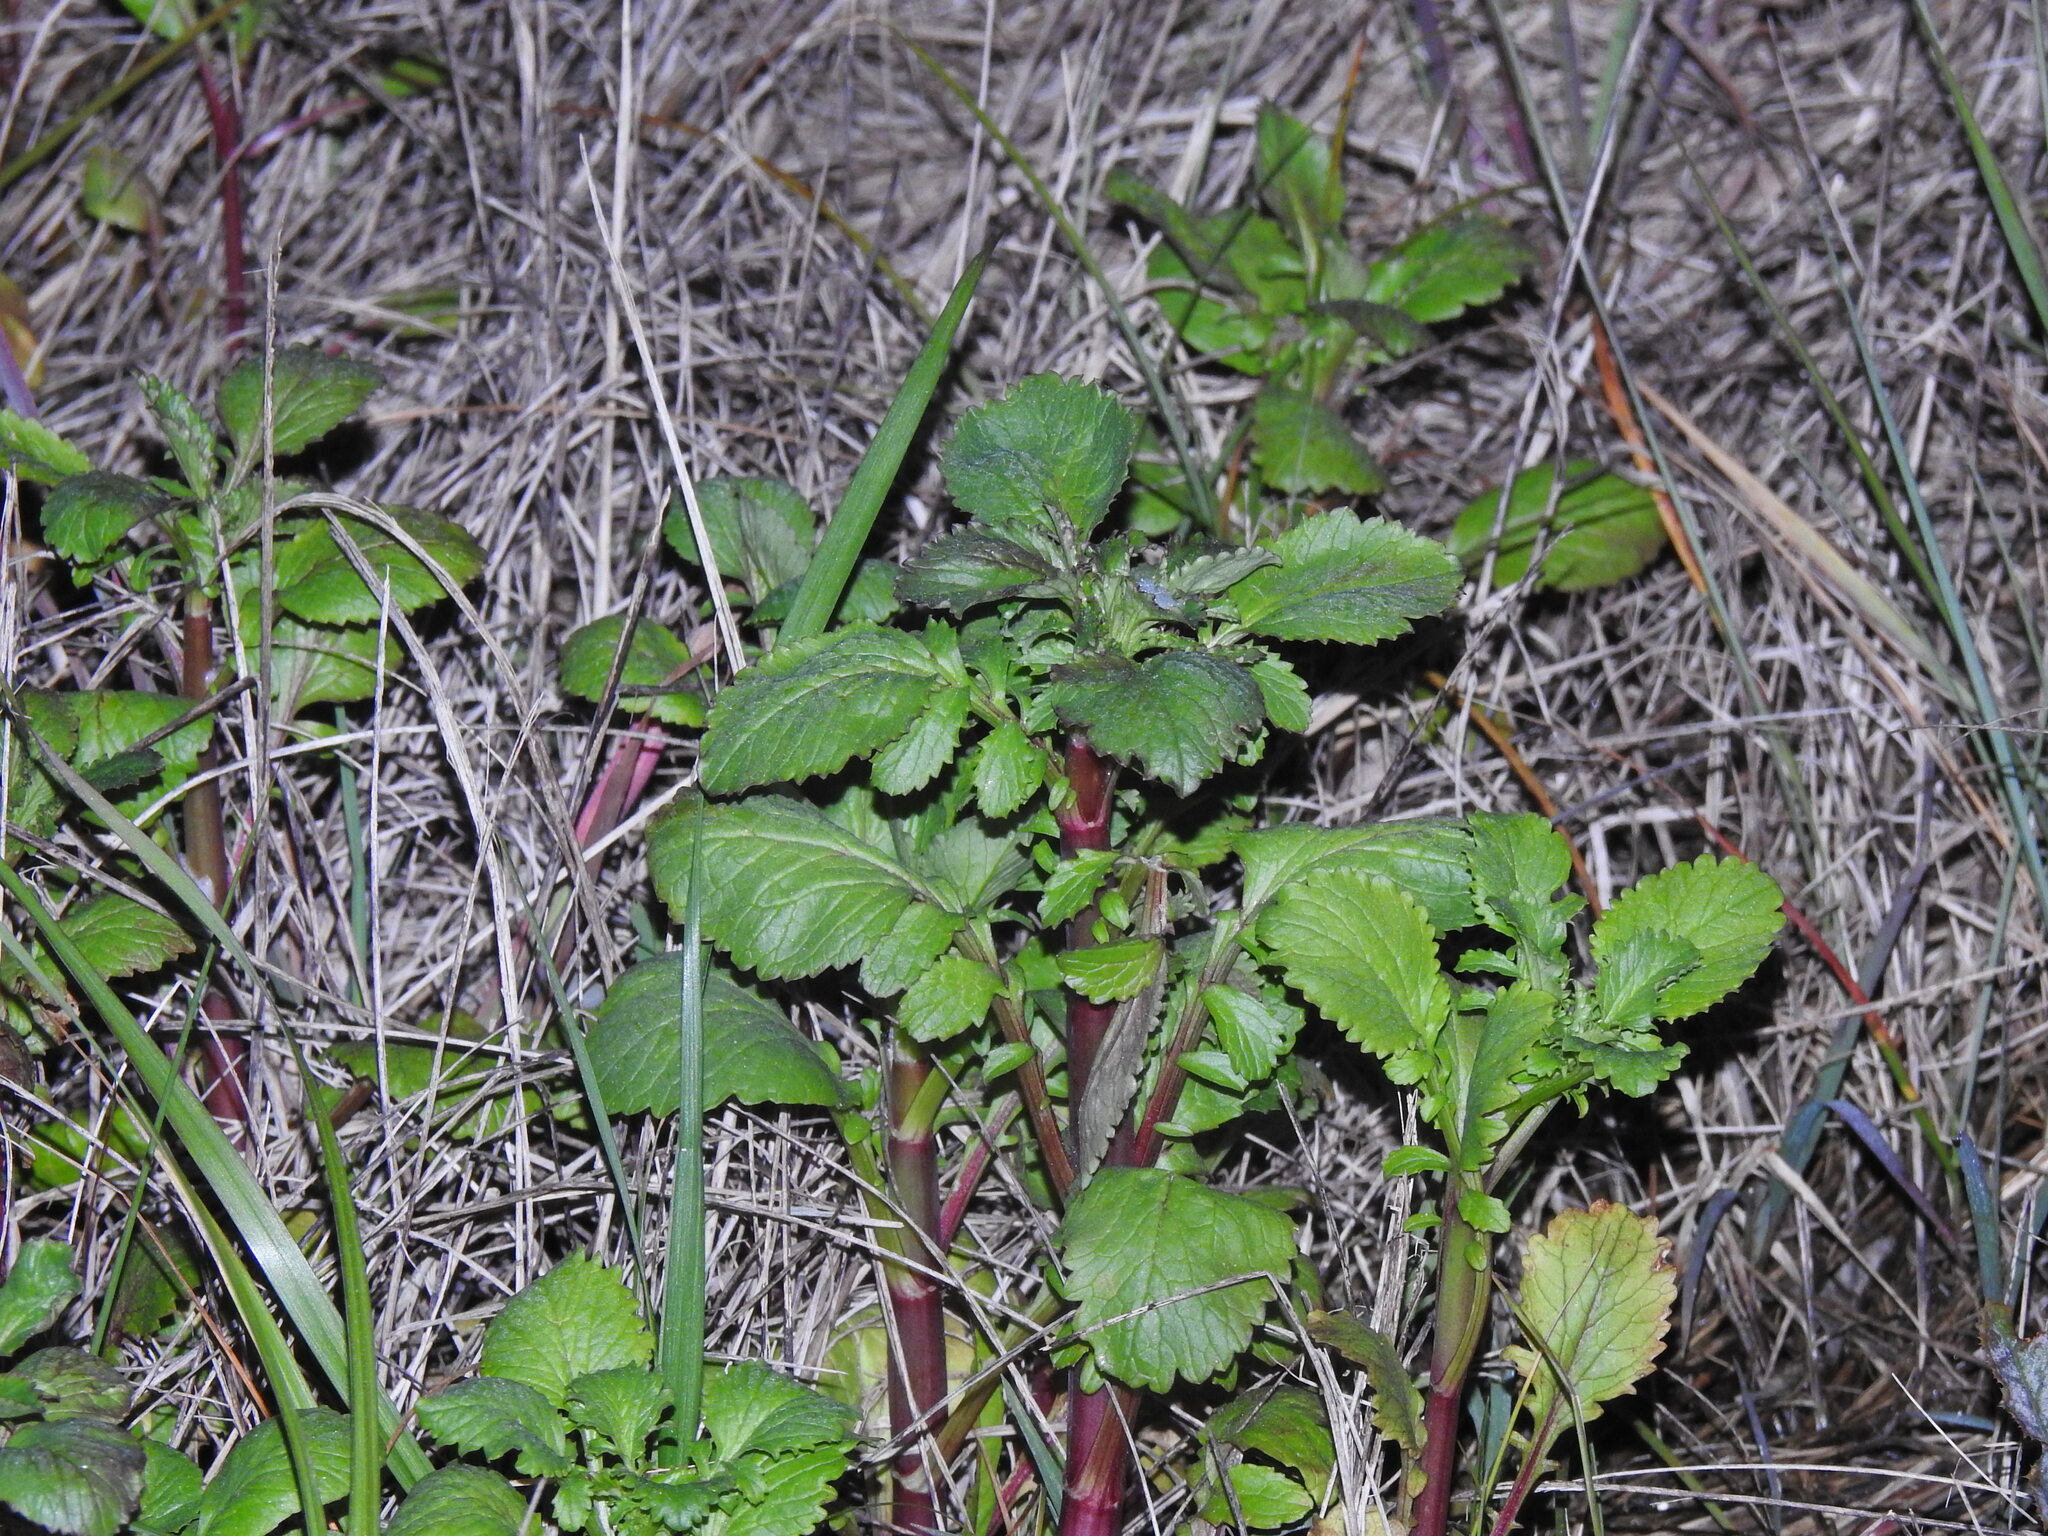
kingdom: Plantae
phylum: Tracheophyta
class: Magnoliopsida
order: Dipsacales
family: Caprifoliaceae
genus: Centranthus
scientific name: Centranthus calcitrapae
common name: Annual valerian
